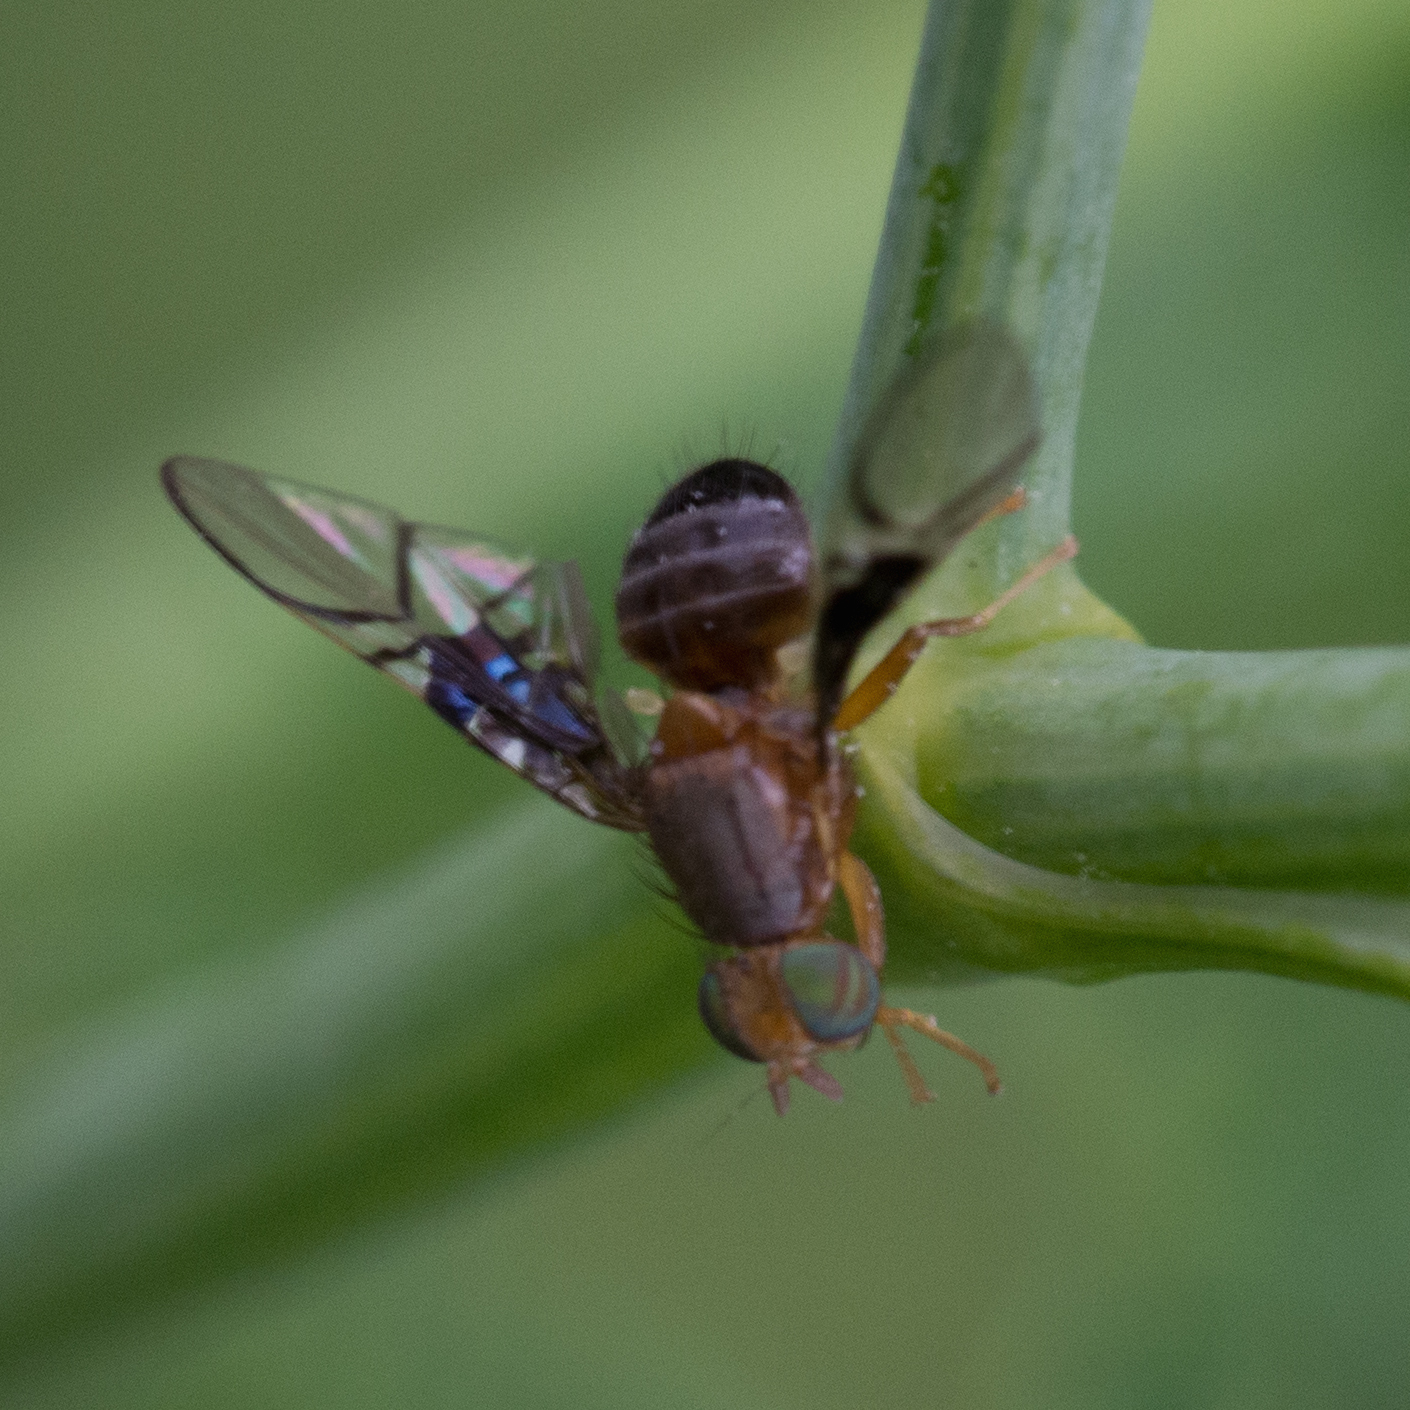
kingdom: Animalia
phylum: Arthropoda
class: Insecta
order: Diptera
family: Tephritidae
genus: Anomoia
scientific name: Anomoia purmunda
